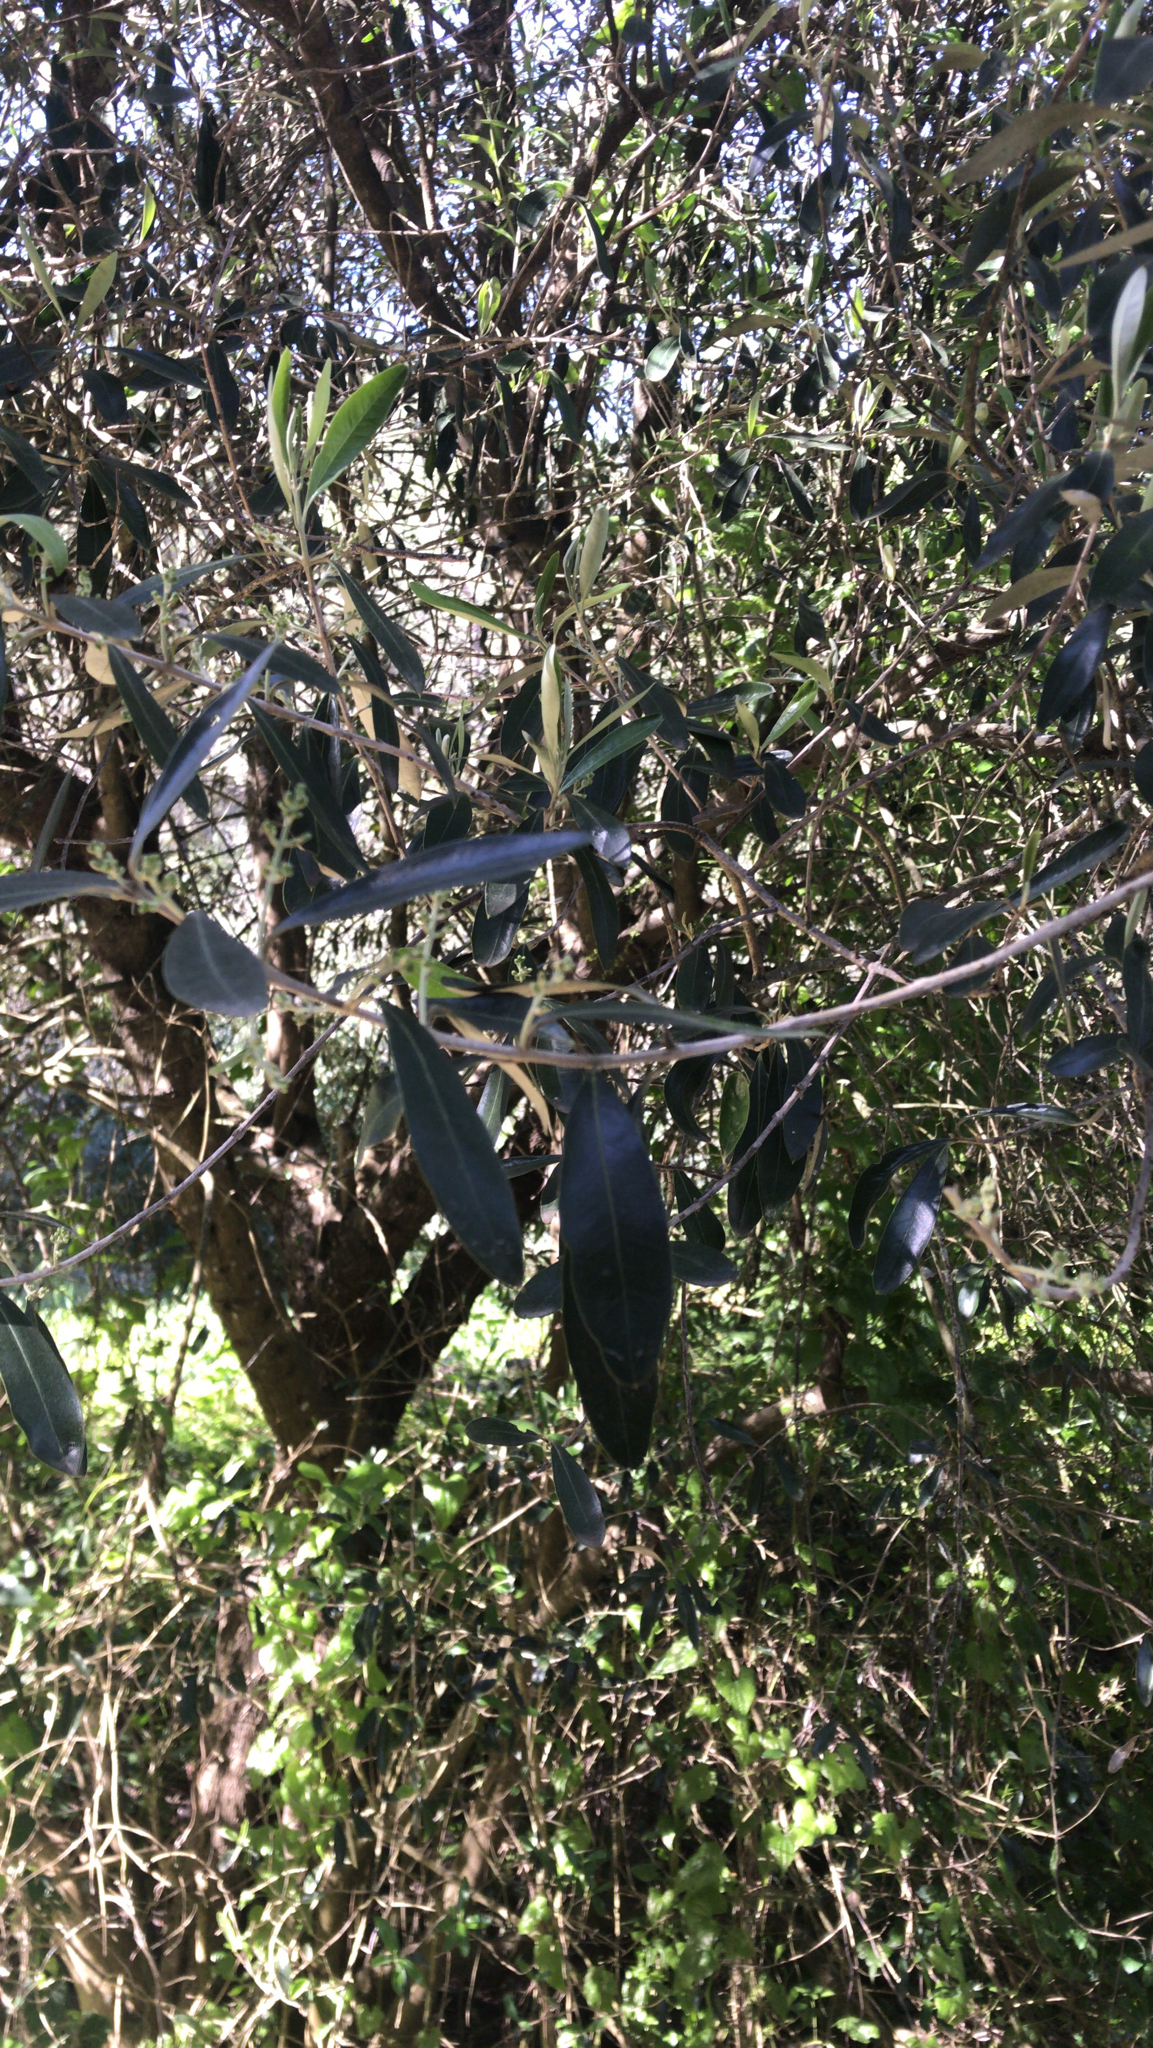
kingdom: Plantae
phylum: Tracheophyta
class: Magnoliopsida
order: Lamiales
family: Oleaceae
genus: Olea
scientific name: Olea europaea
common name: Olive
